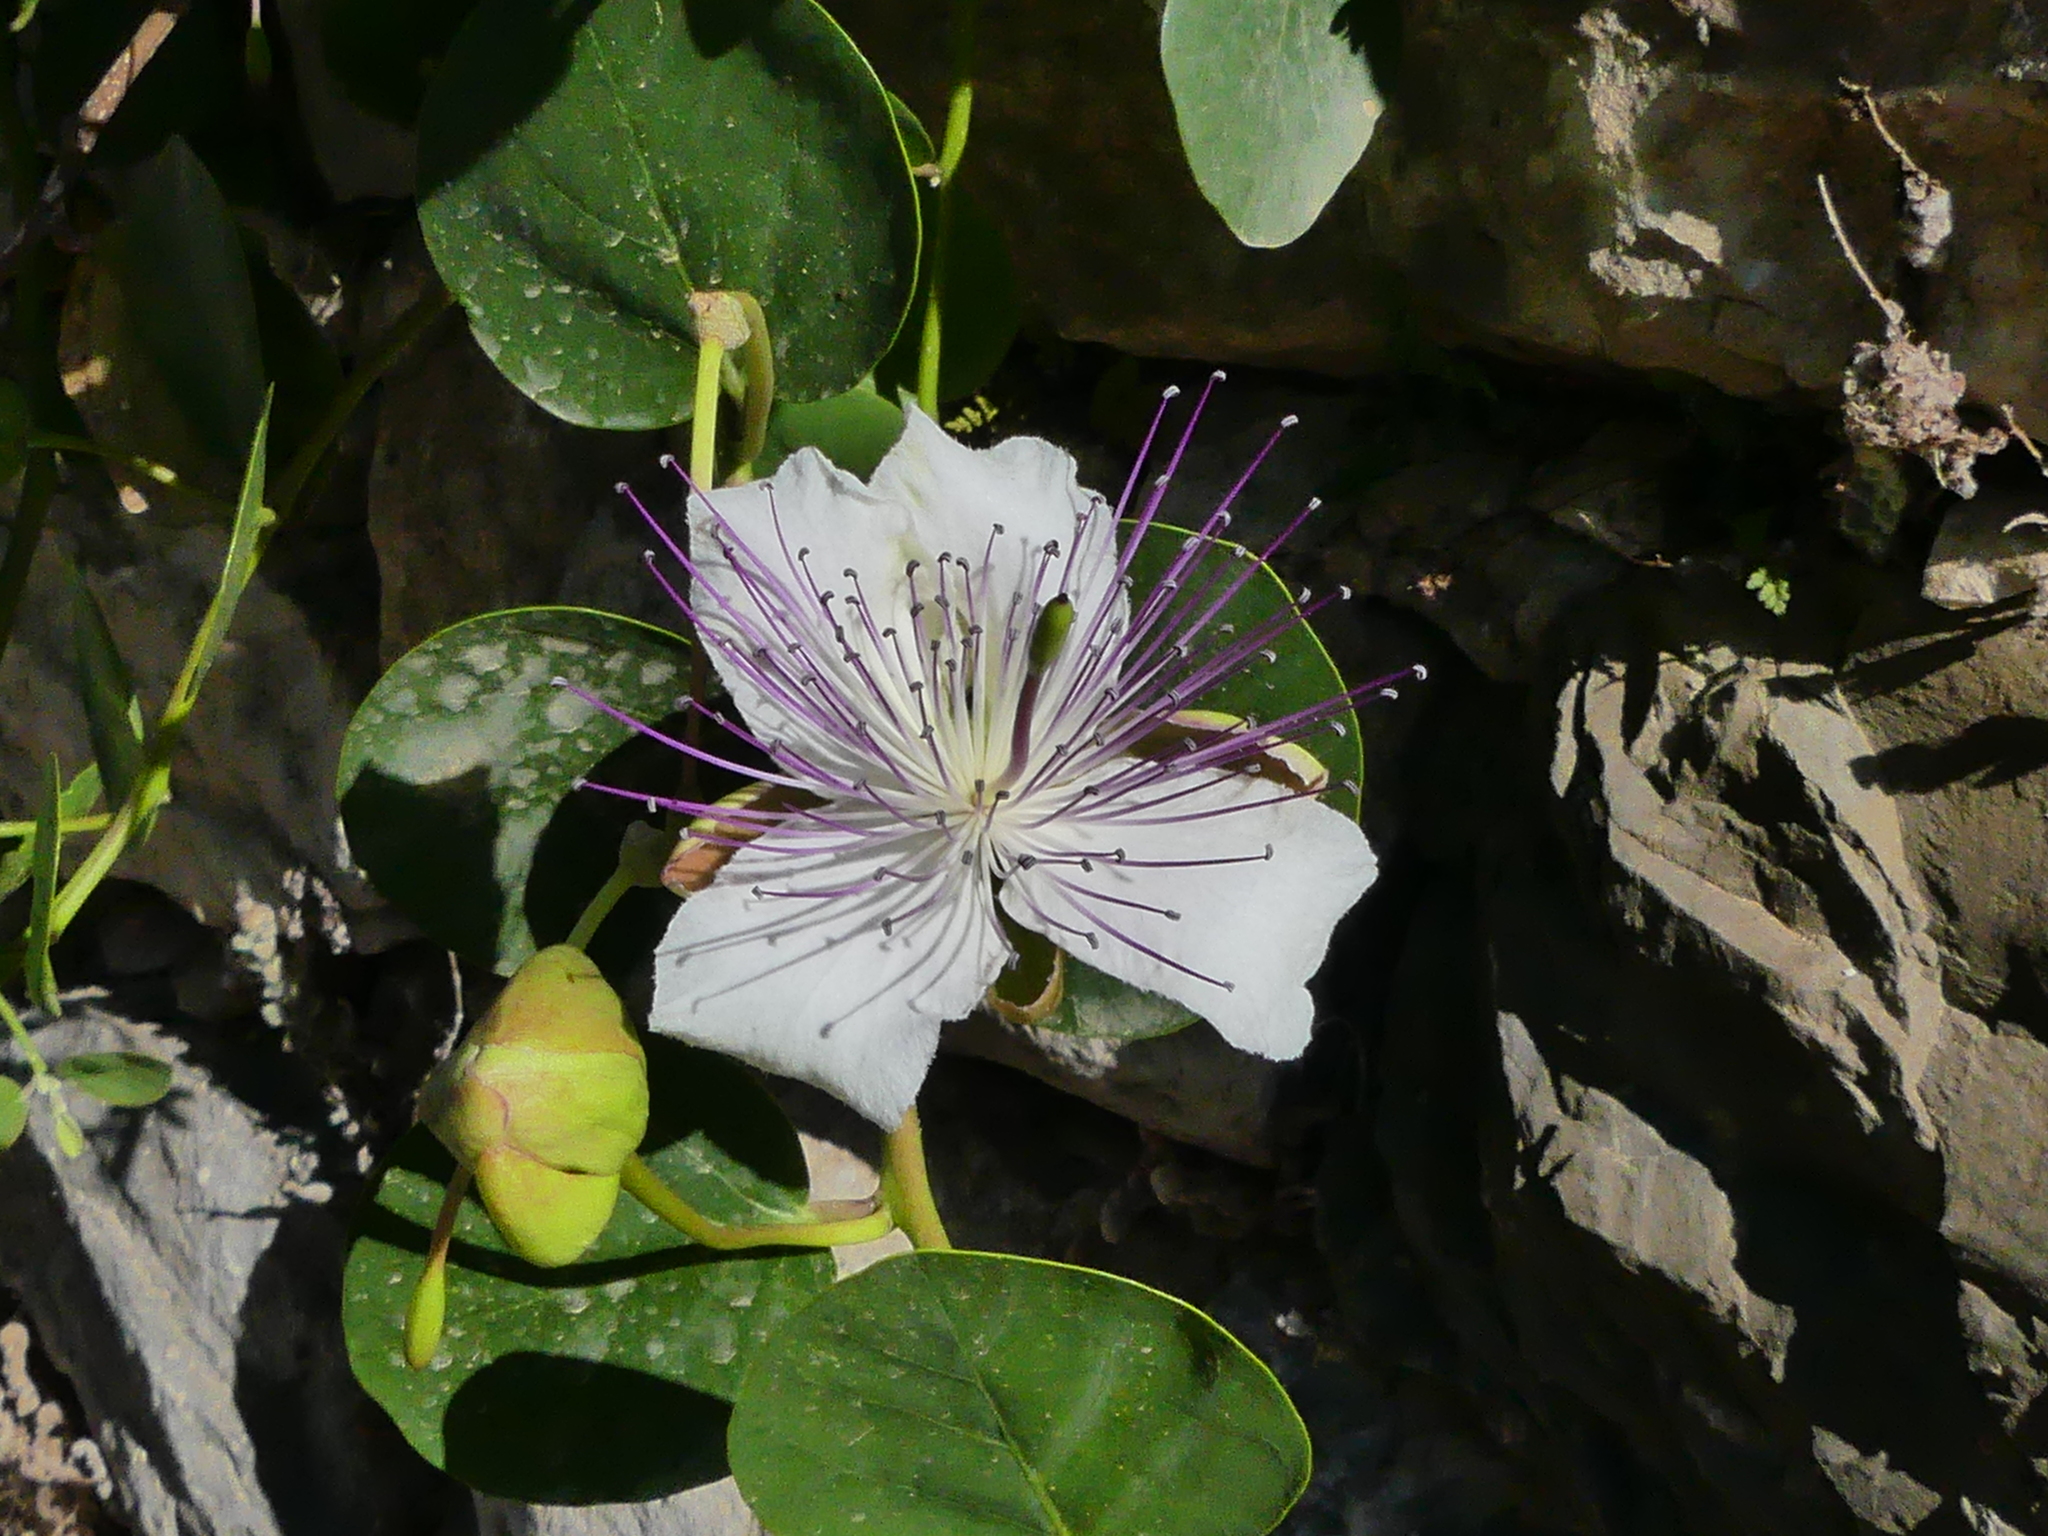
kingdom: Plantae
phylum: Tracheophyta
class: Magnoliopsida
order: Brassicales
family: Capparaceae
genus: Capparis
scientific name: Capparis orientalis
